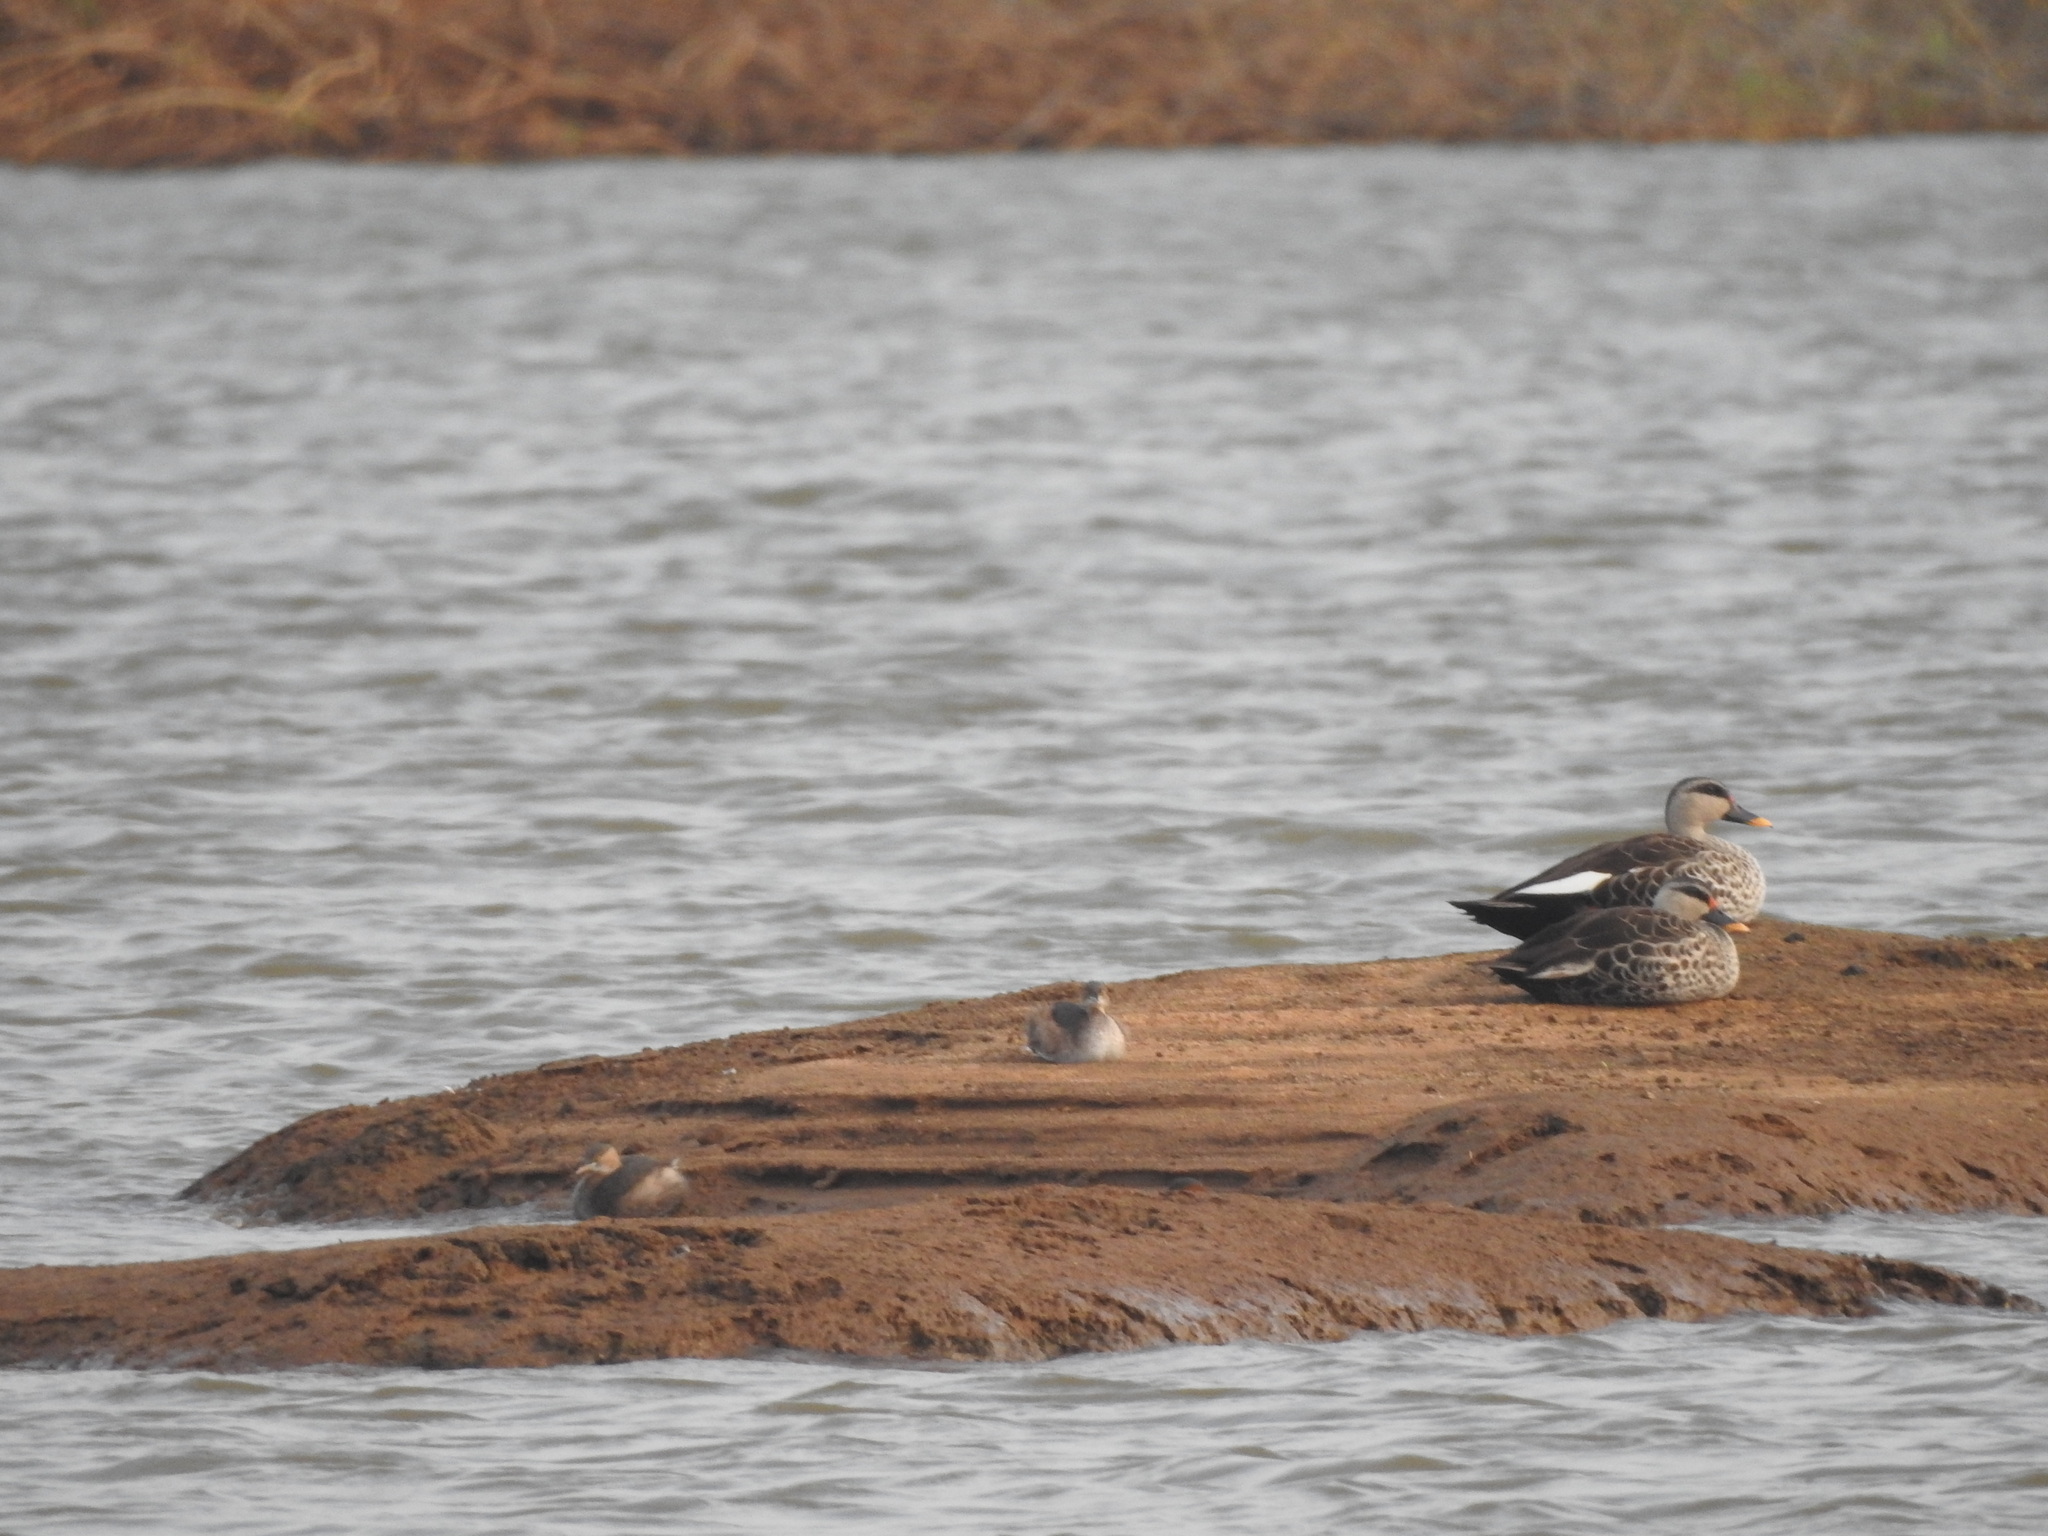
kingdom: Animalia
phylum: Chordata
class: Aves
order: Anseriformes
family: Anatidae
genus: Anas
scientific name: Anas poecilorhyncha
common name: Indian spot-billed duck
